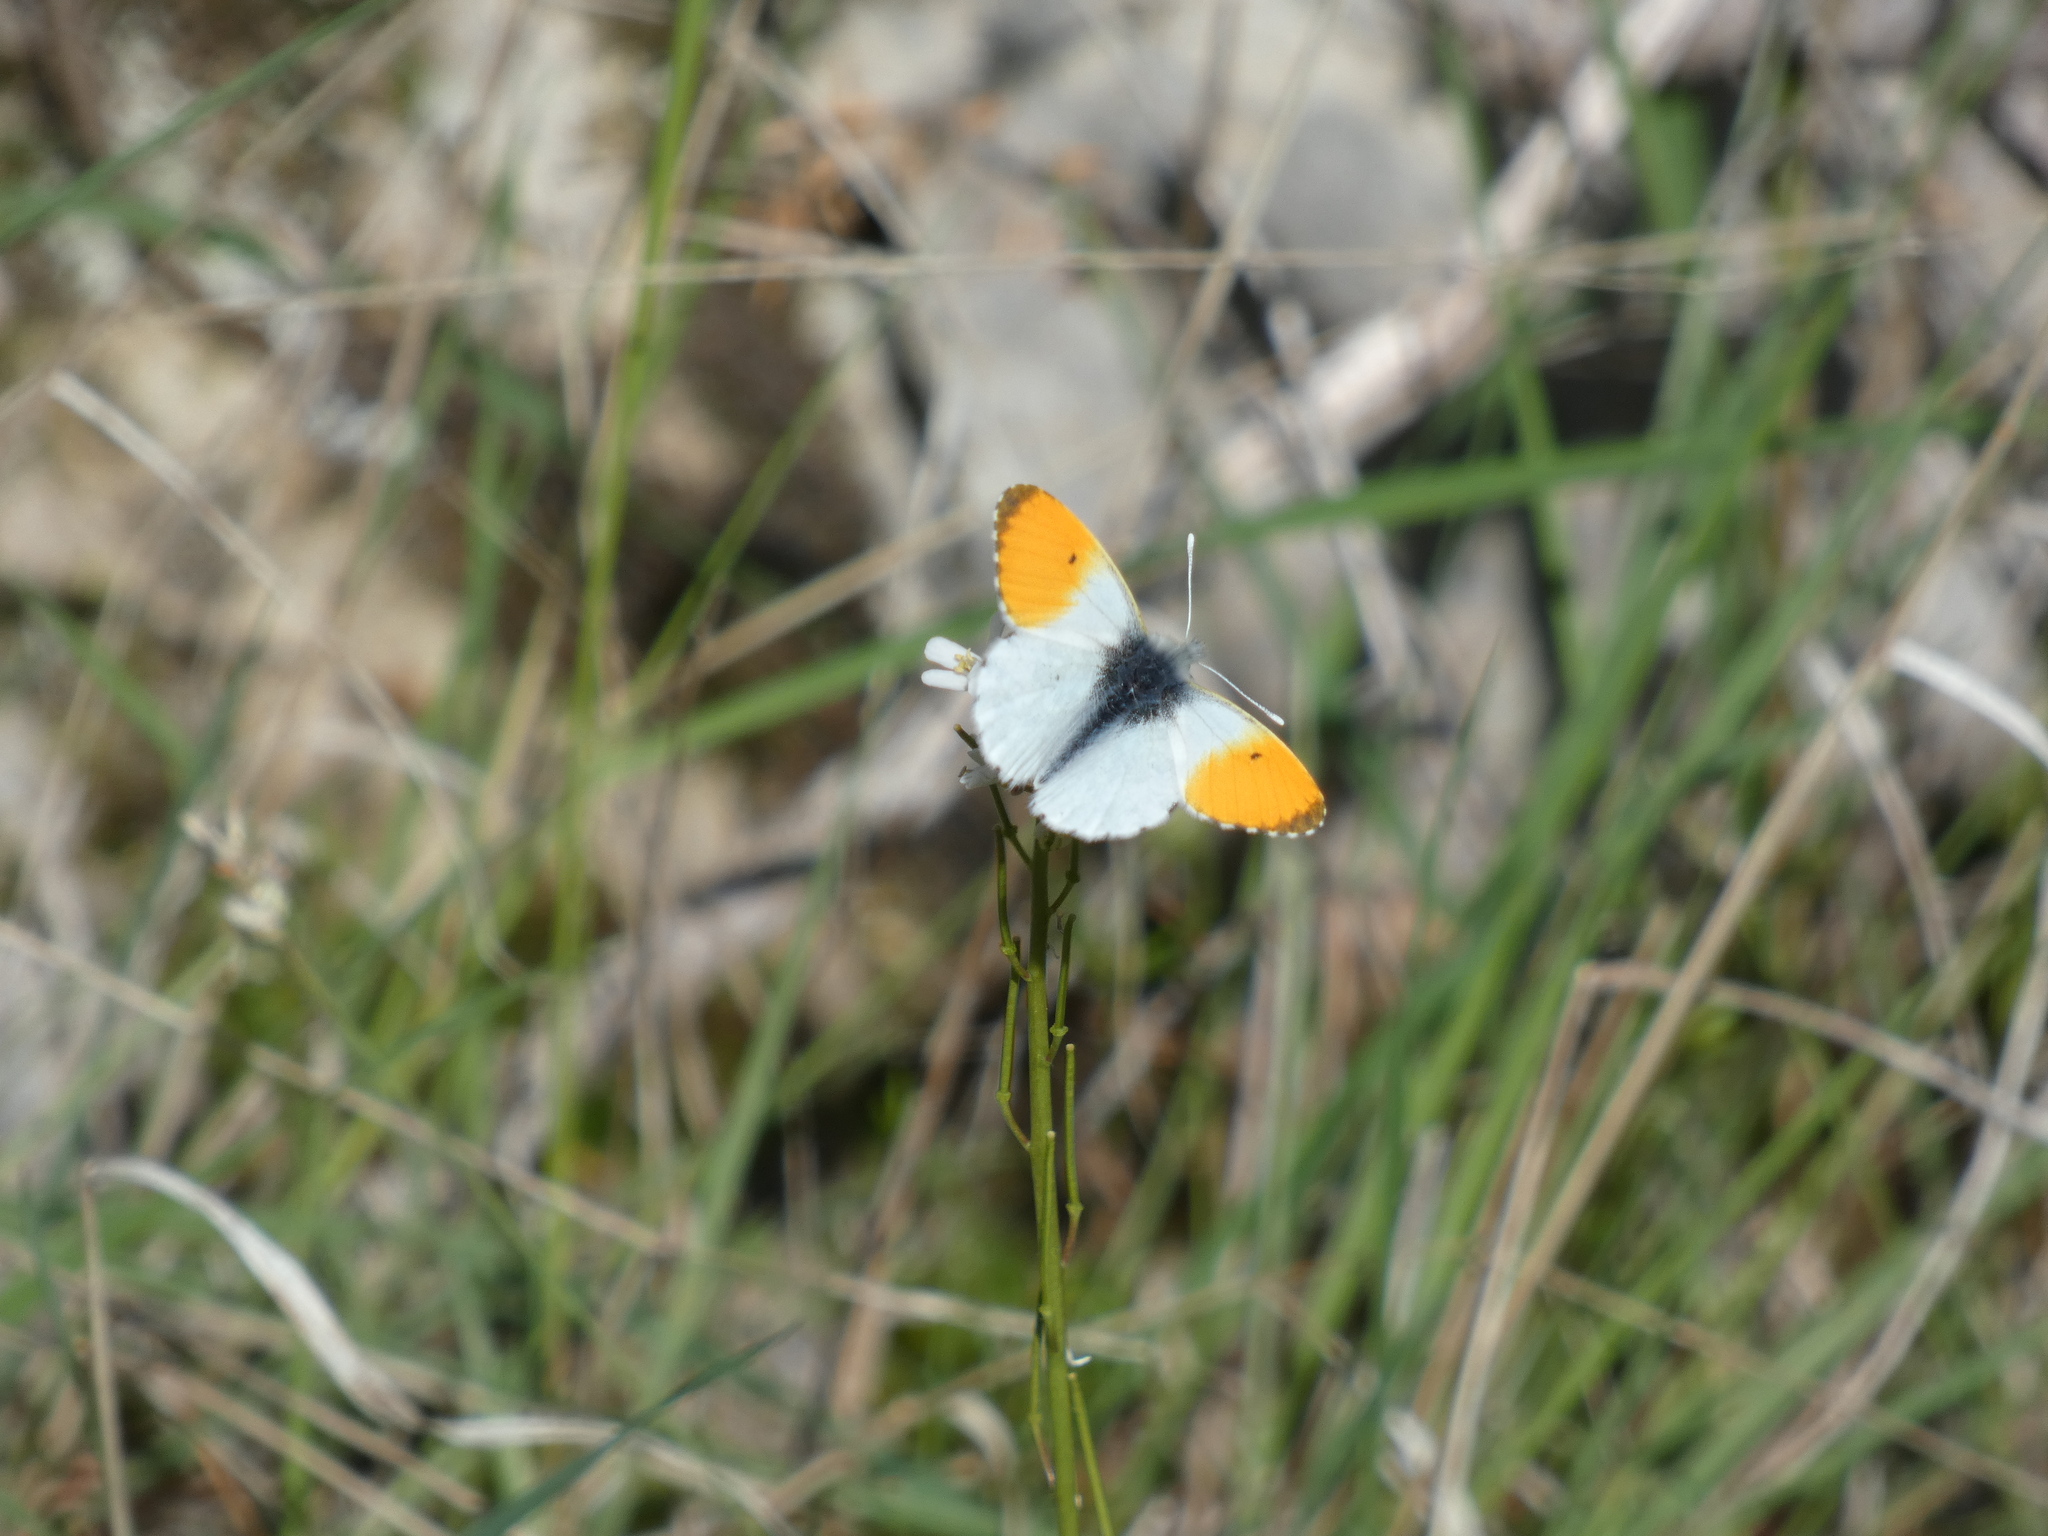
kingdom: Animalia
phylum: Arthropoda
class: Insecta
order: Lepidoptera
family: Pieridae
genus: Anthocharis
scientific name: Anthocharis cardamines
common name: Orange-tip
